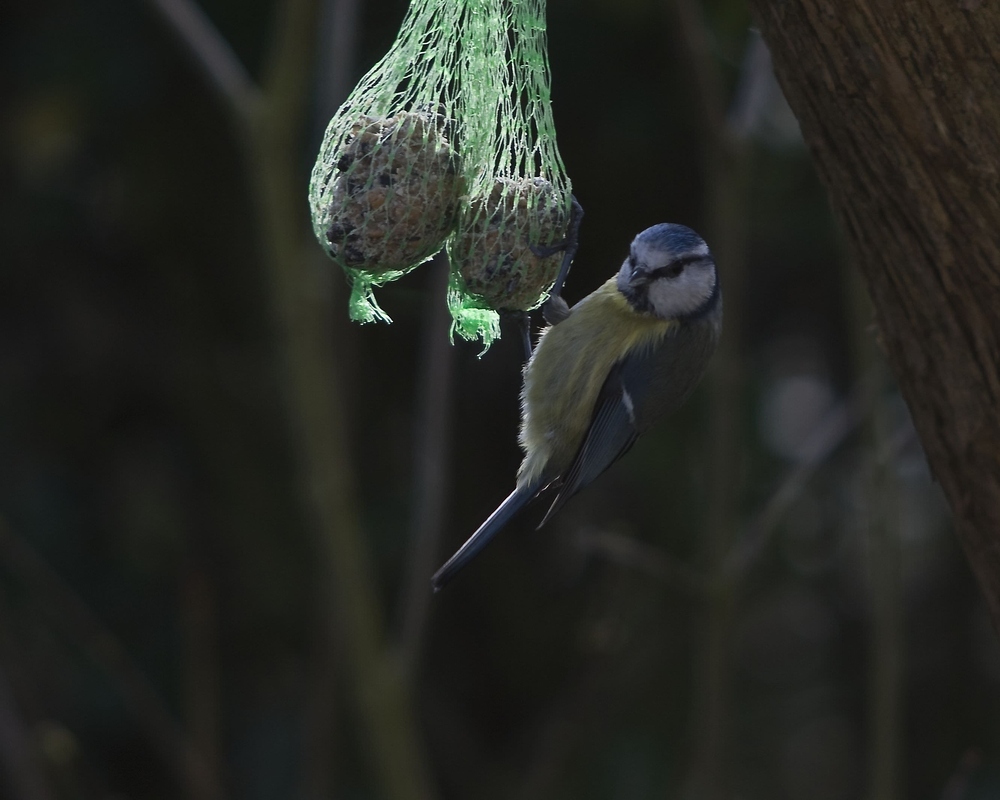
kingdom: Animalia
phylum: Chordata
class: Aves
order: Passeriformes
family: Paridae
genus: Cyanistes
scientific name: Cyanistes caeruleus
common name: Eurasian blue tit
